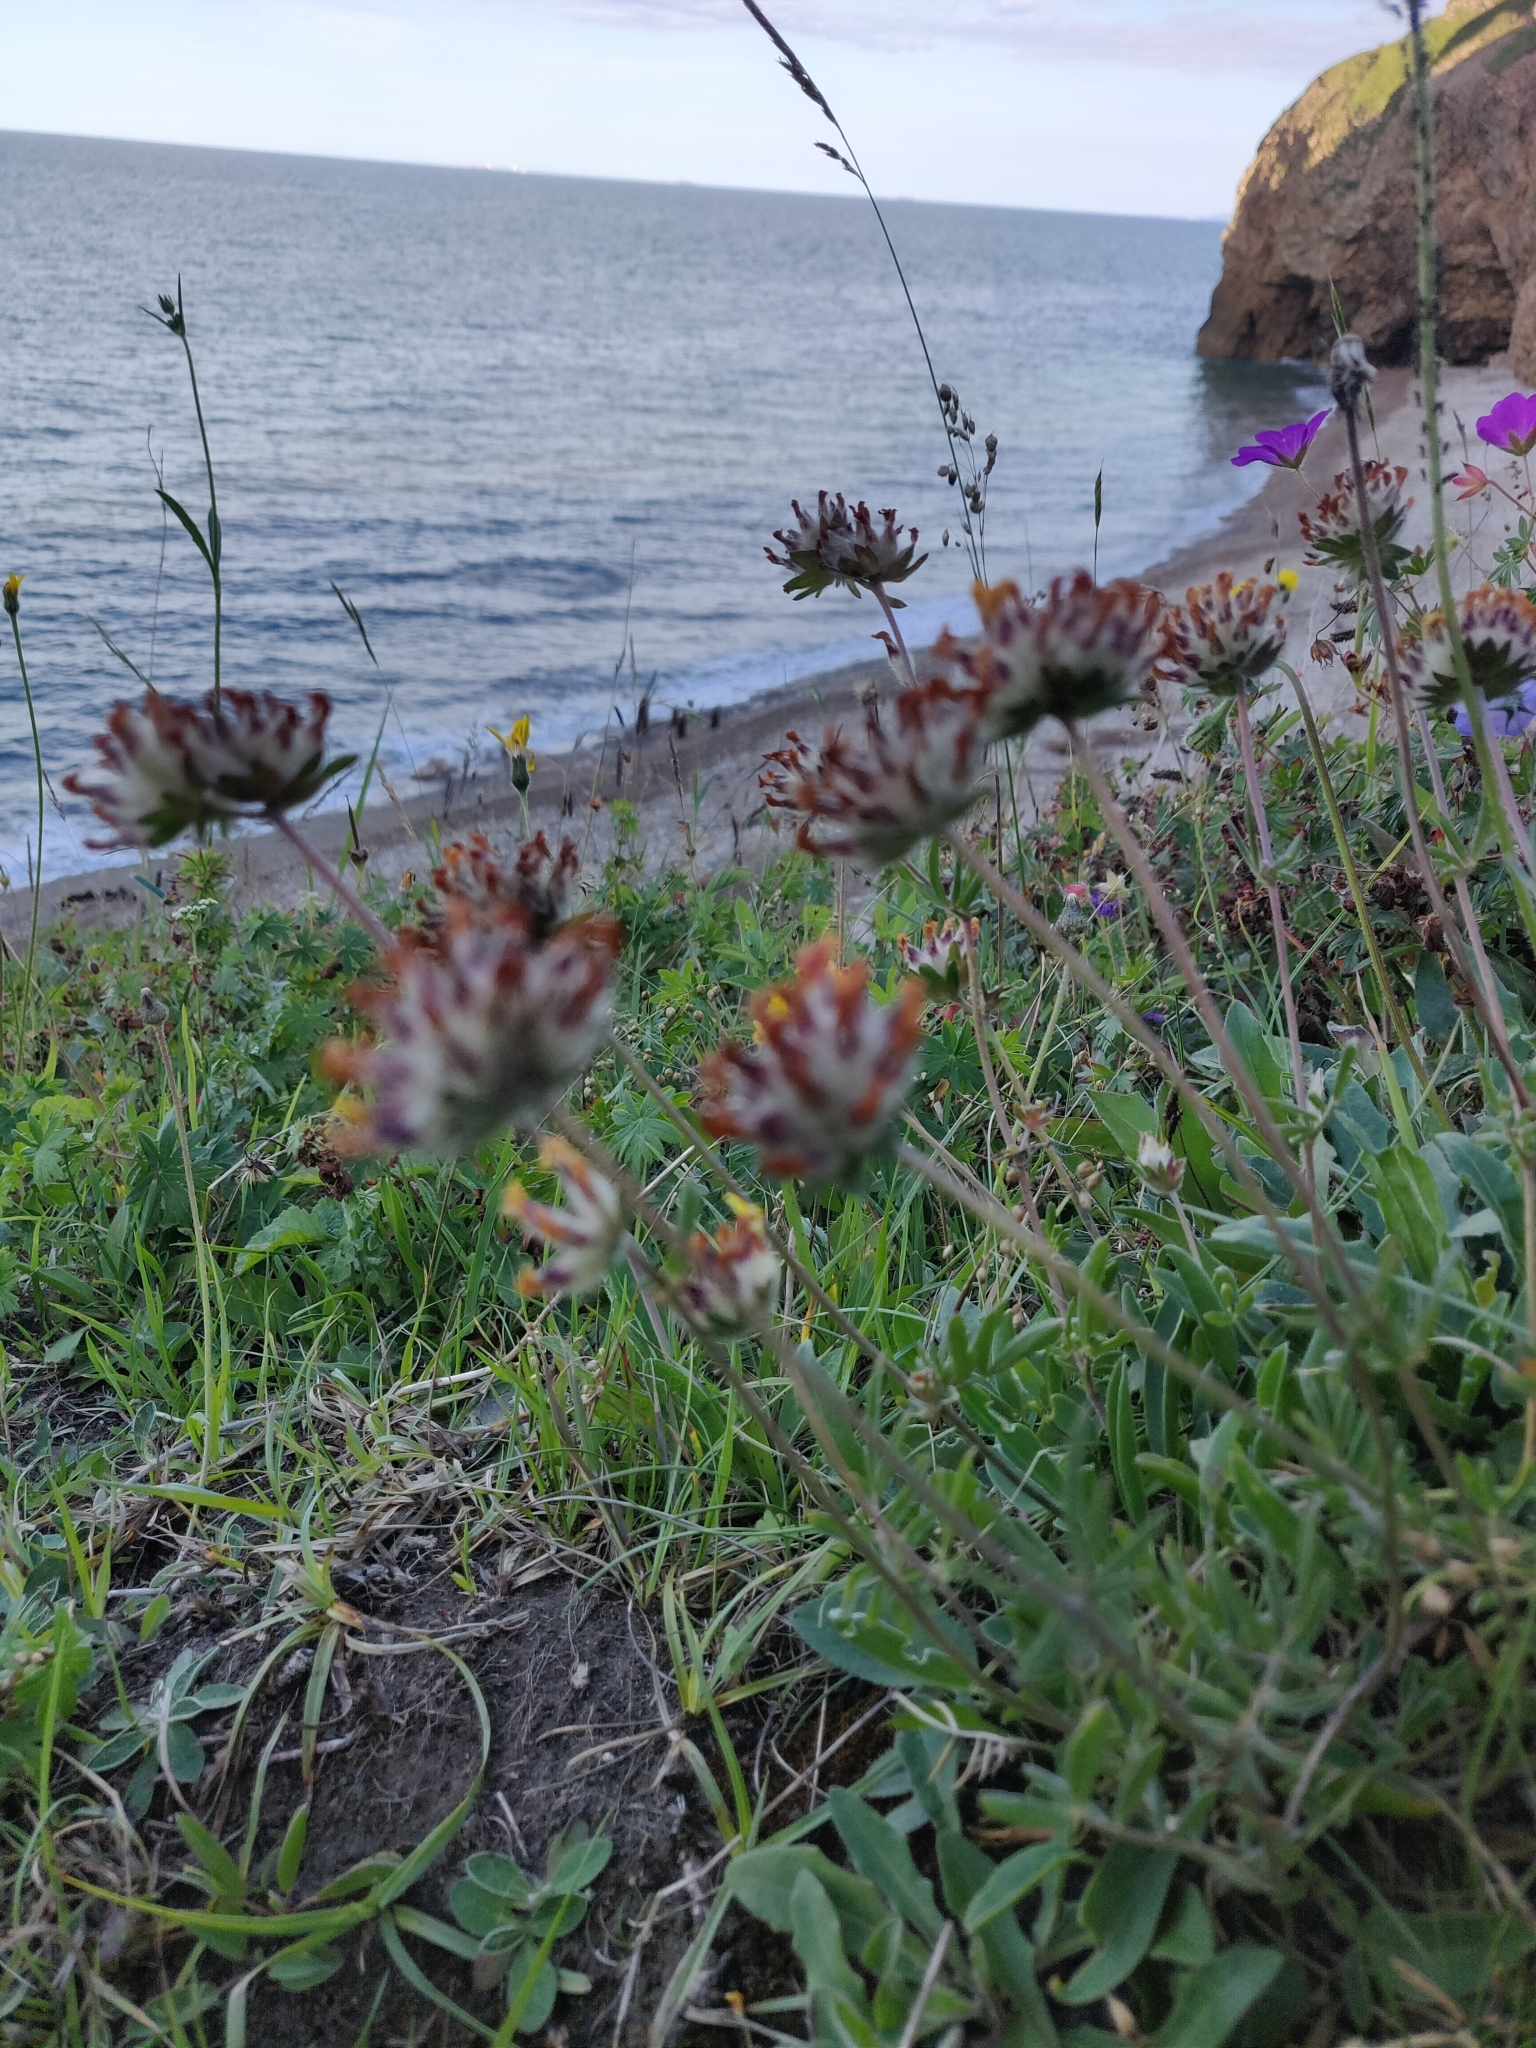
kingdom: Plantae
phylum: Tracheophyta
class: Magnoliopsida
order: Fabales
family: Fabaceae
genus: Anthyllis
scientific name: Anthyllis vulneraria
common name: Kidney vetch
